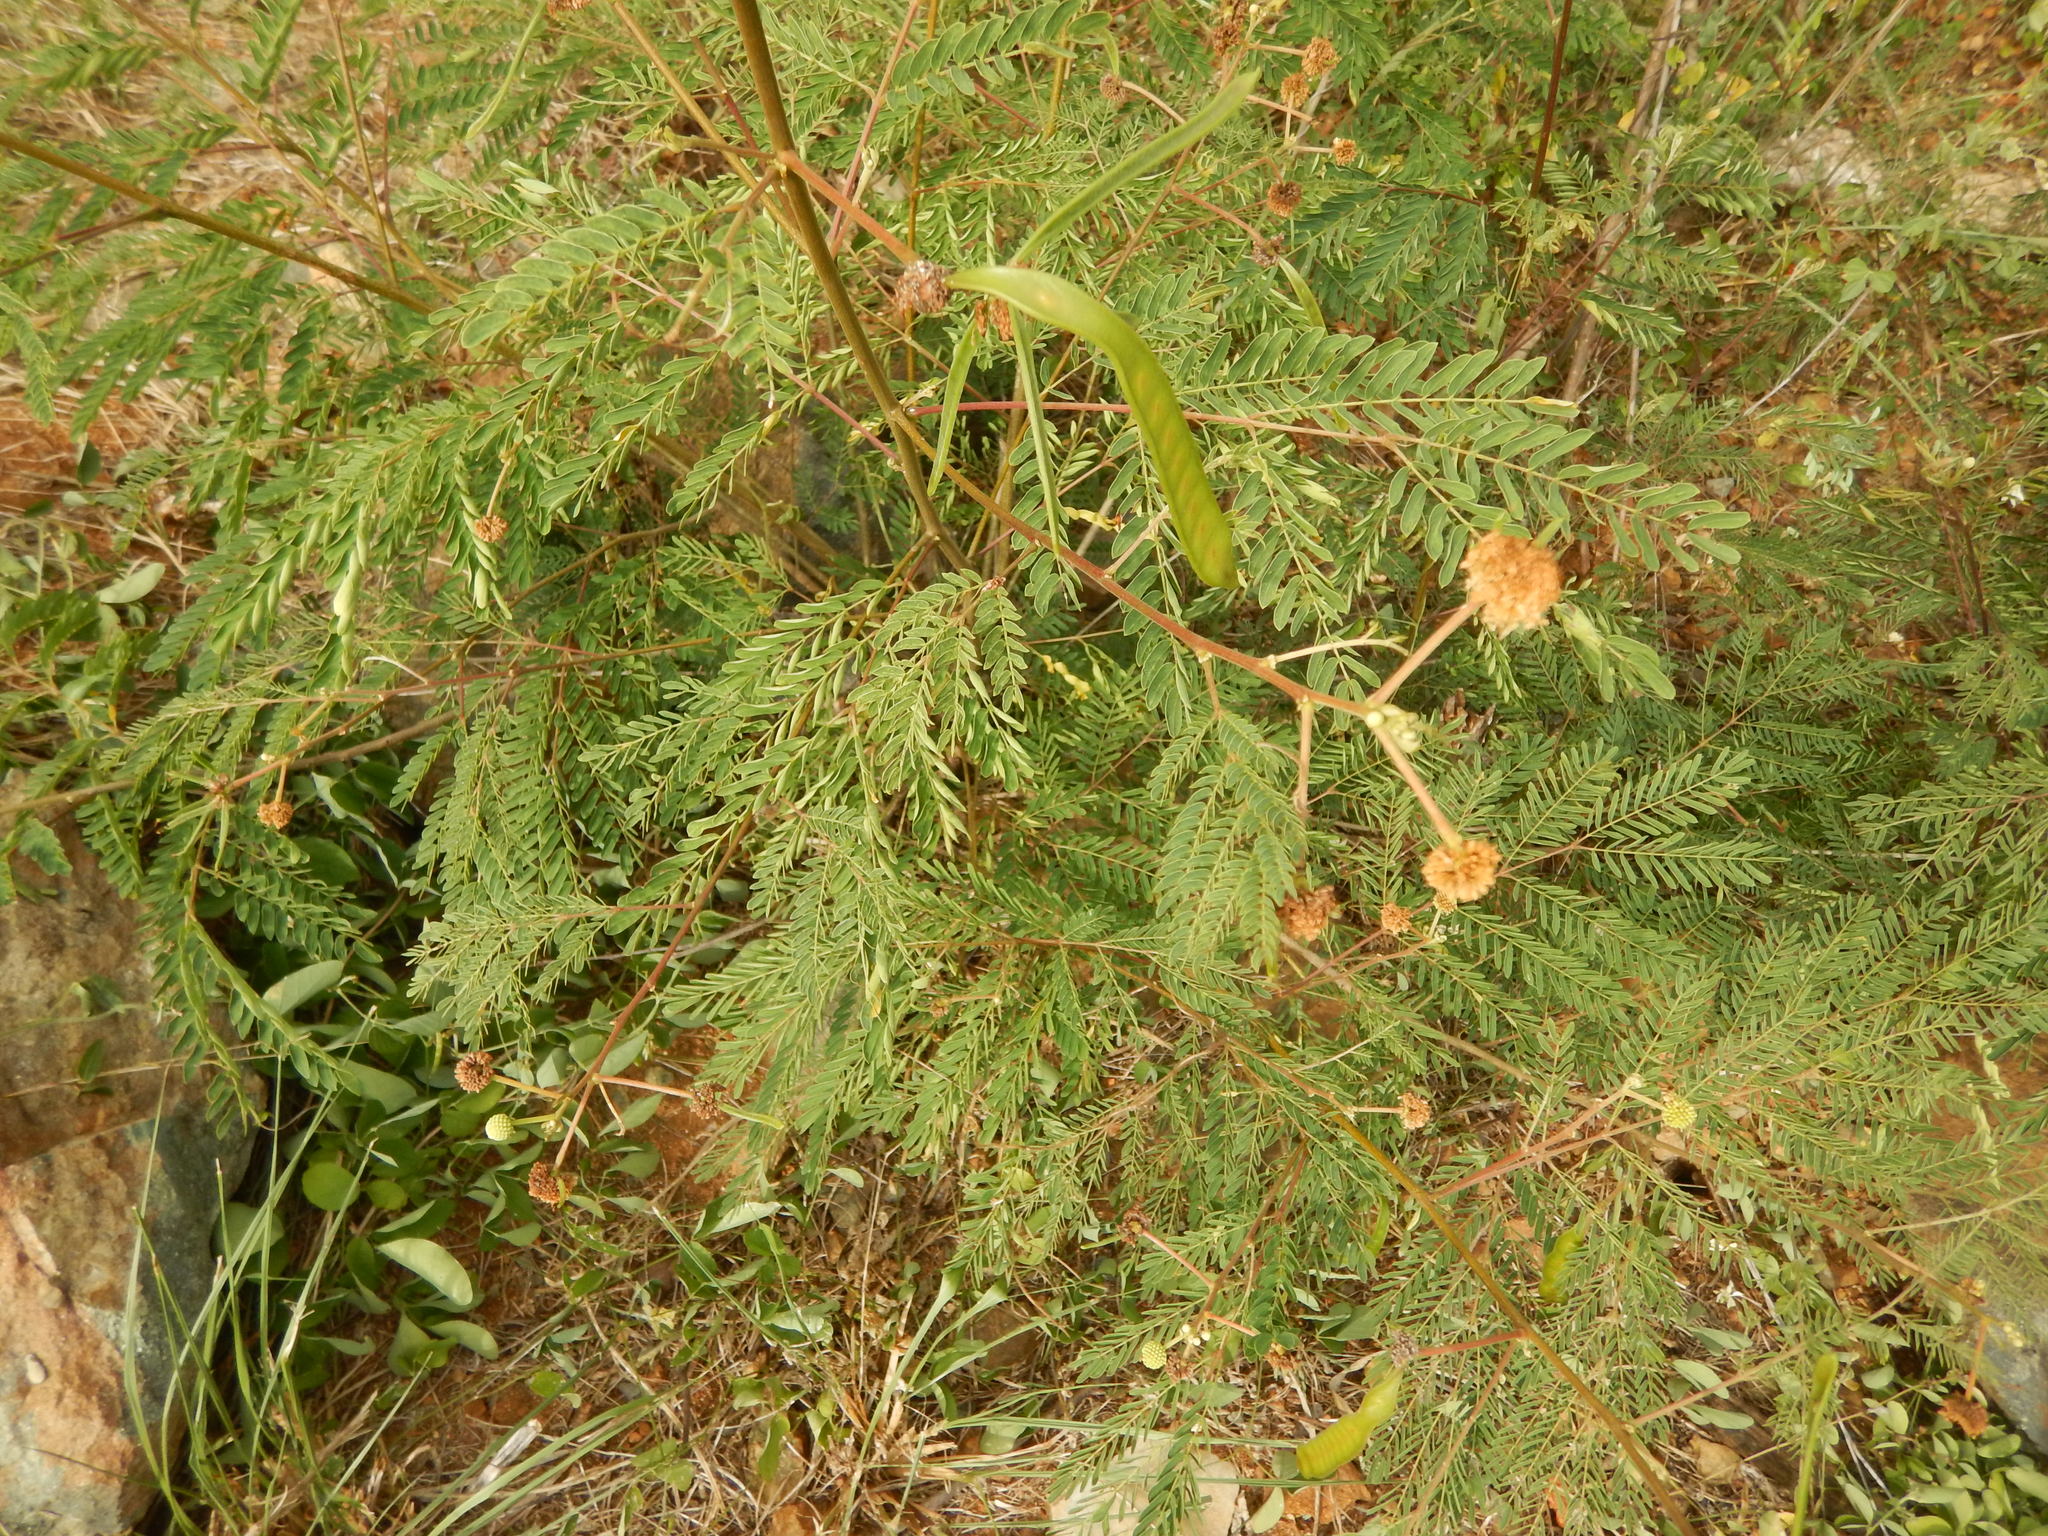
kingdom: Plantae
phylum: Tracheophyta
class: Magnoliopsida
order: Fabales
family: Fabaceae
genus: Leucaena
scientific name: Leucaena leucocephala
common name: White leadtree
